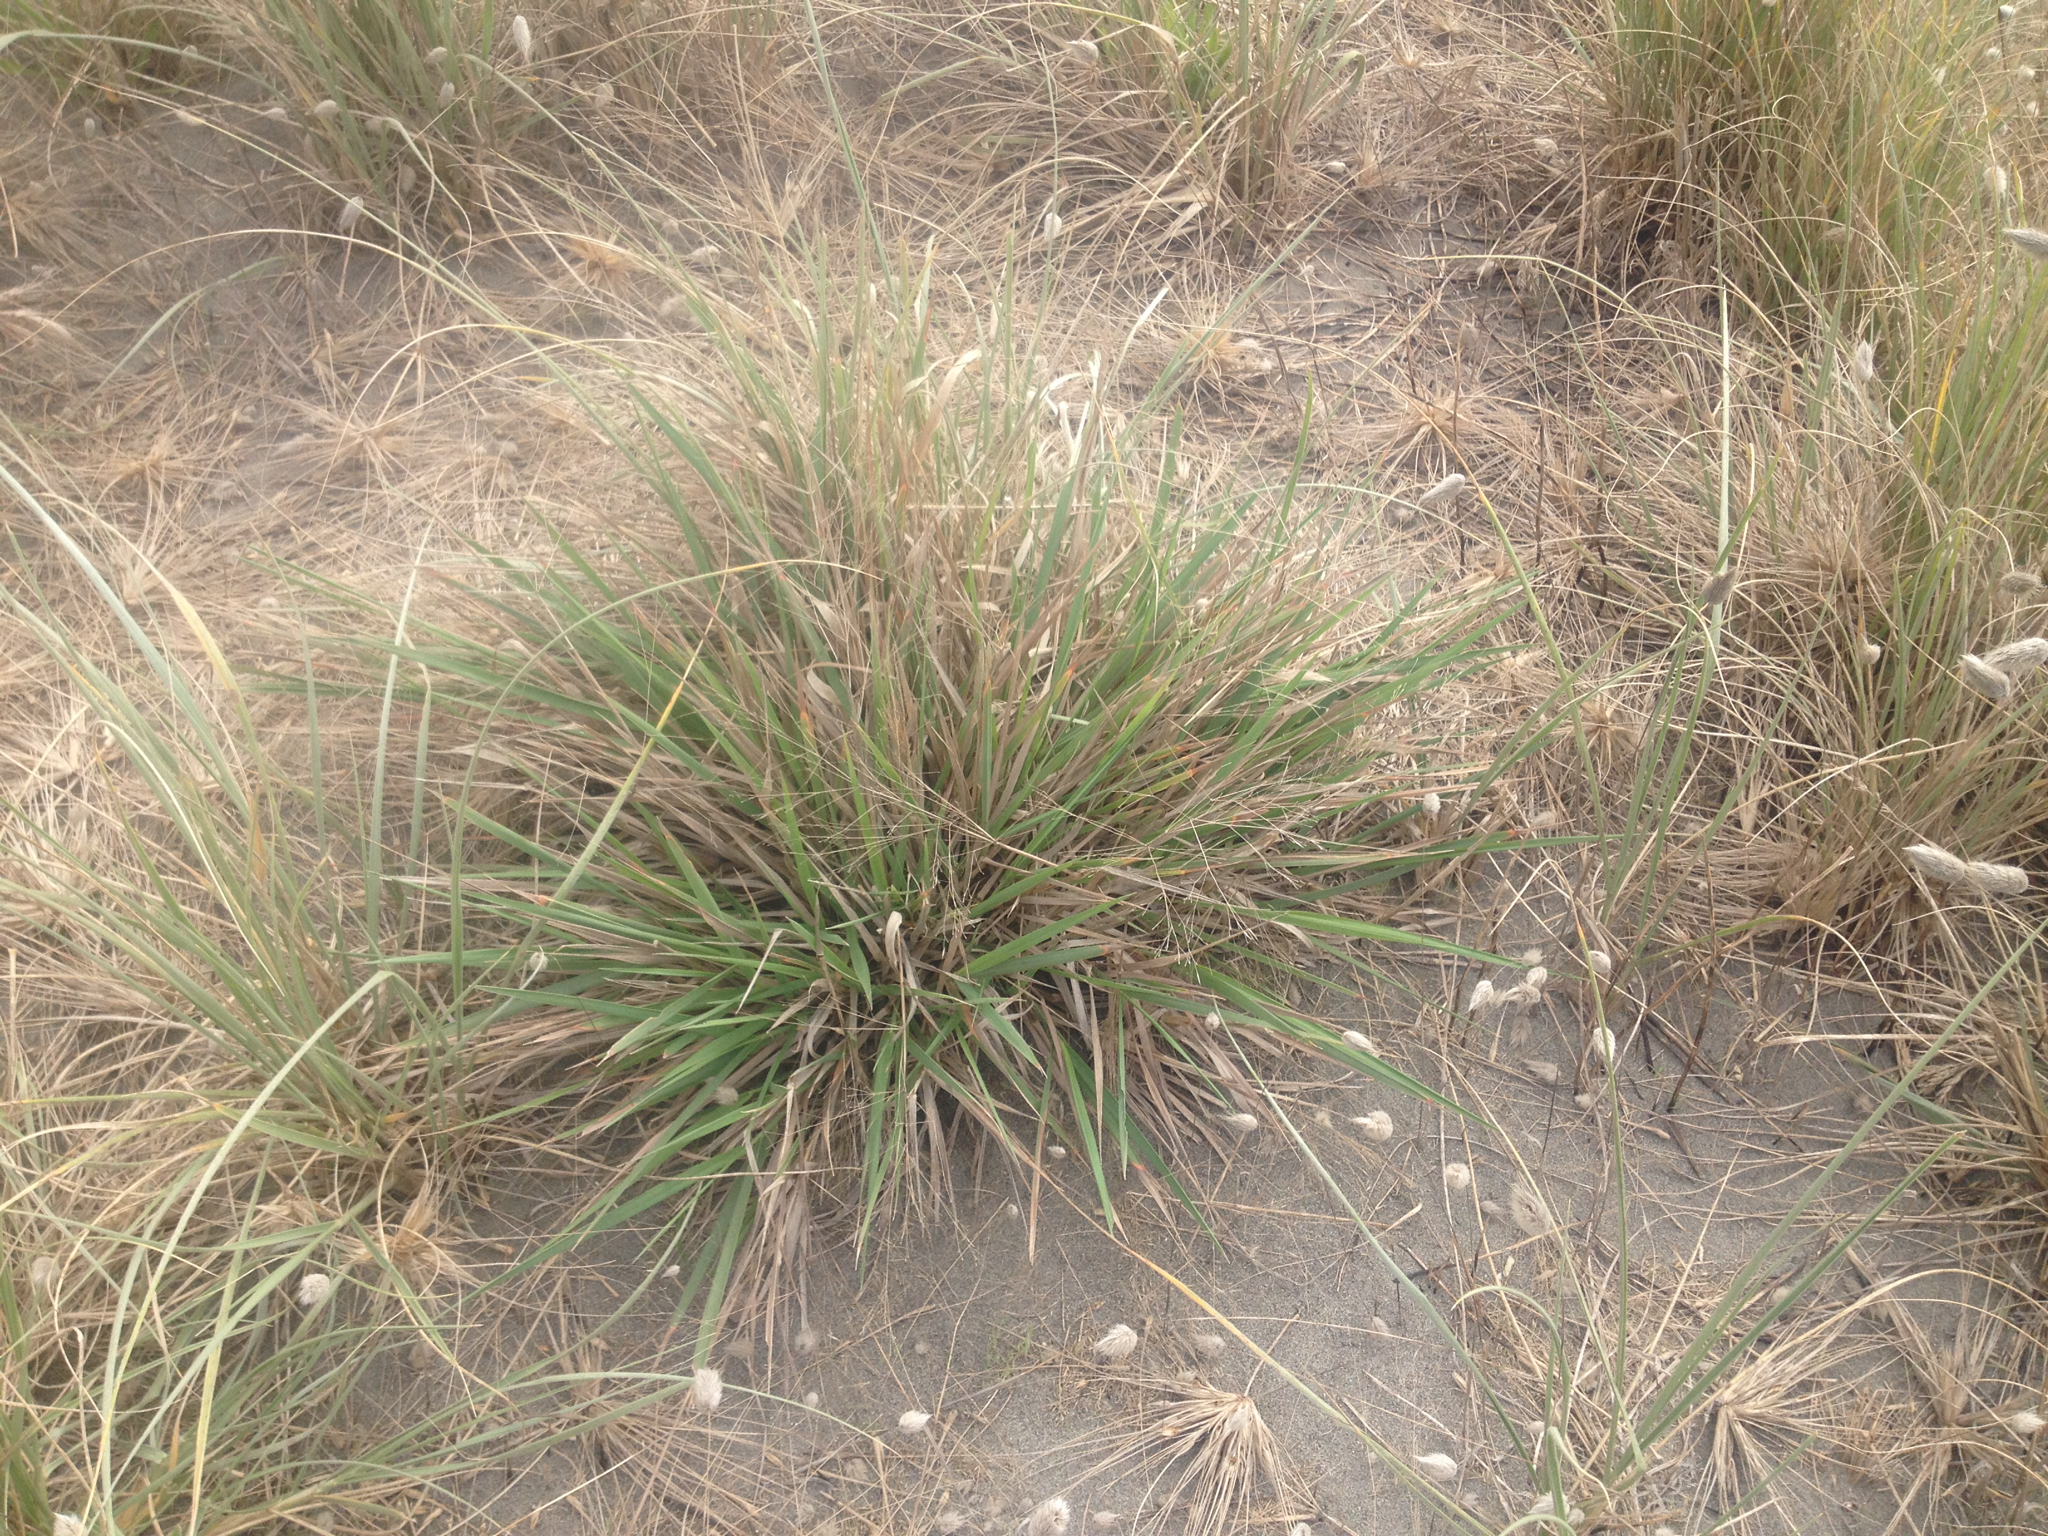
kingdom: Plantae
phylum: Tracheophyta
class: Liliopsida
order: Poales
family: Poaceae
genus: Lachnagrostis
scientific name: Lachnagrostis billardierei
